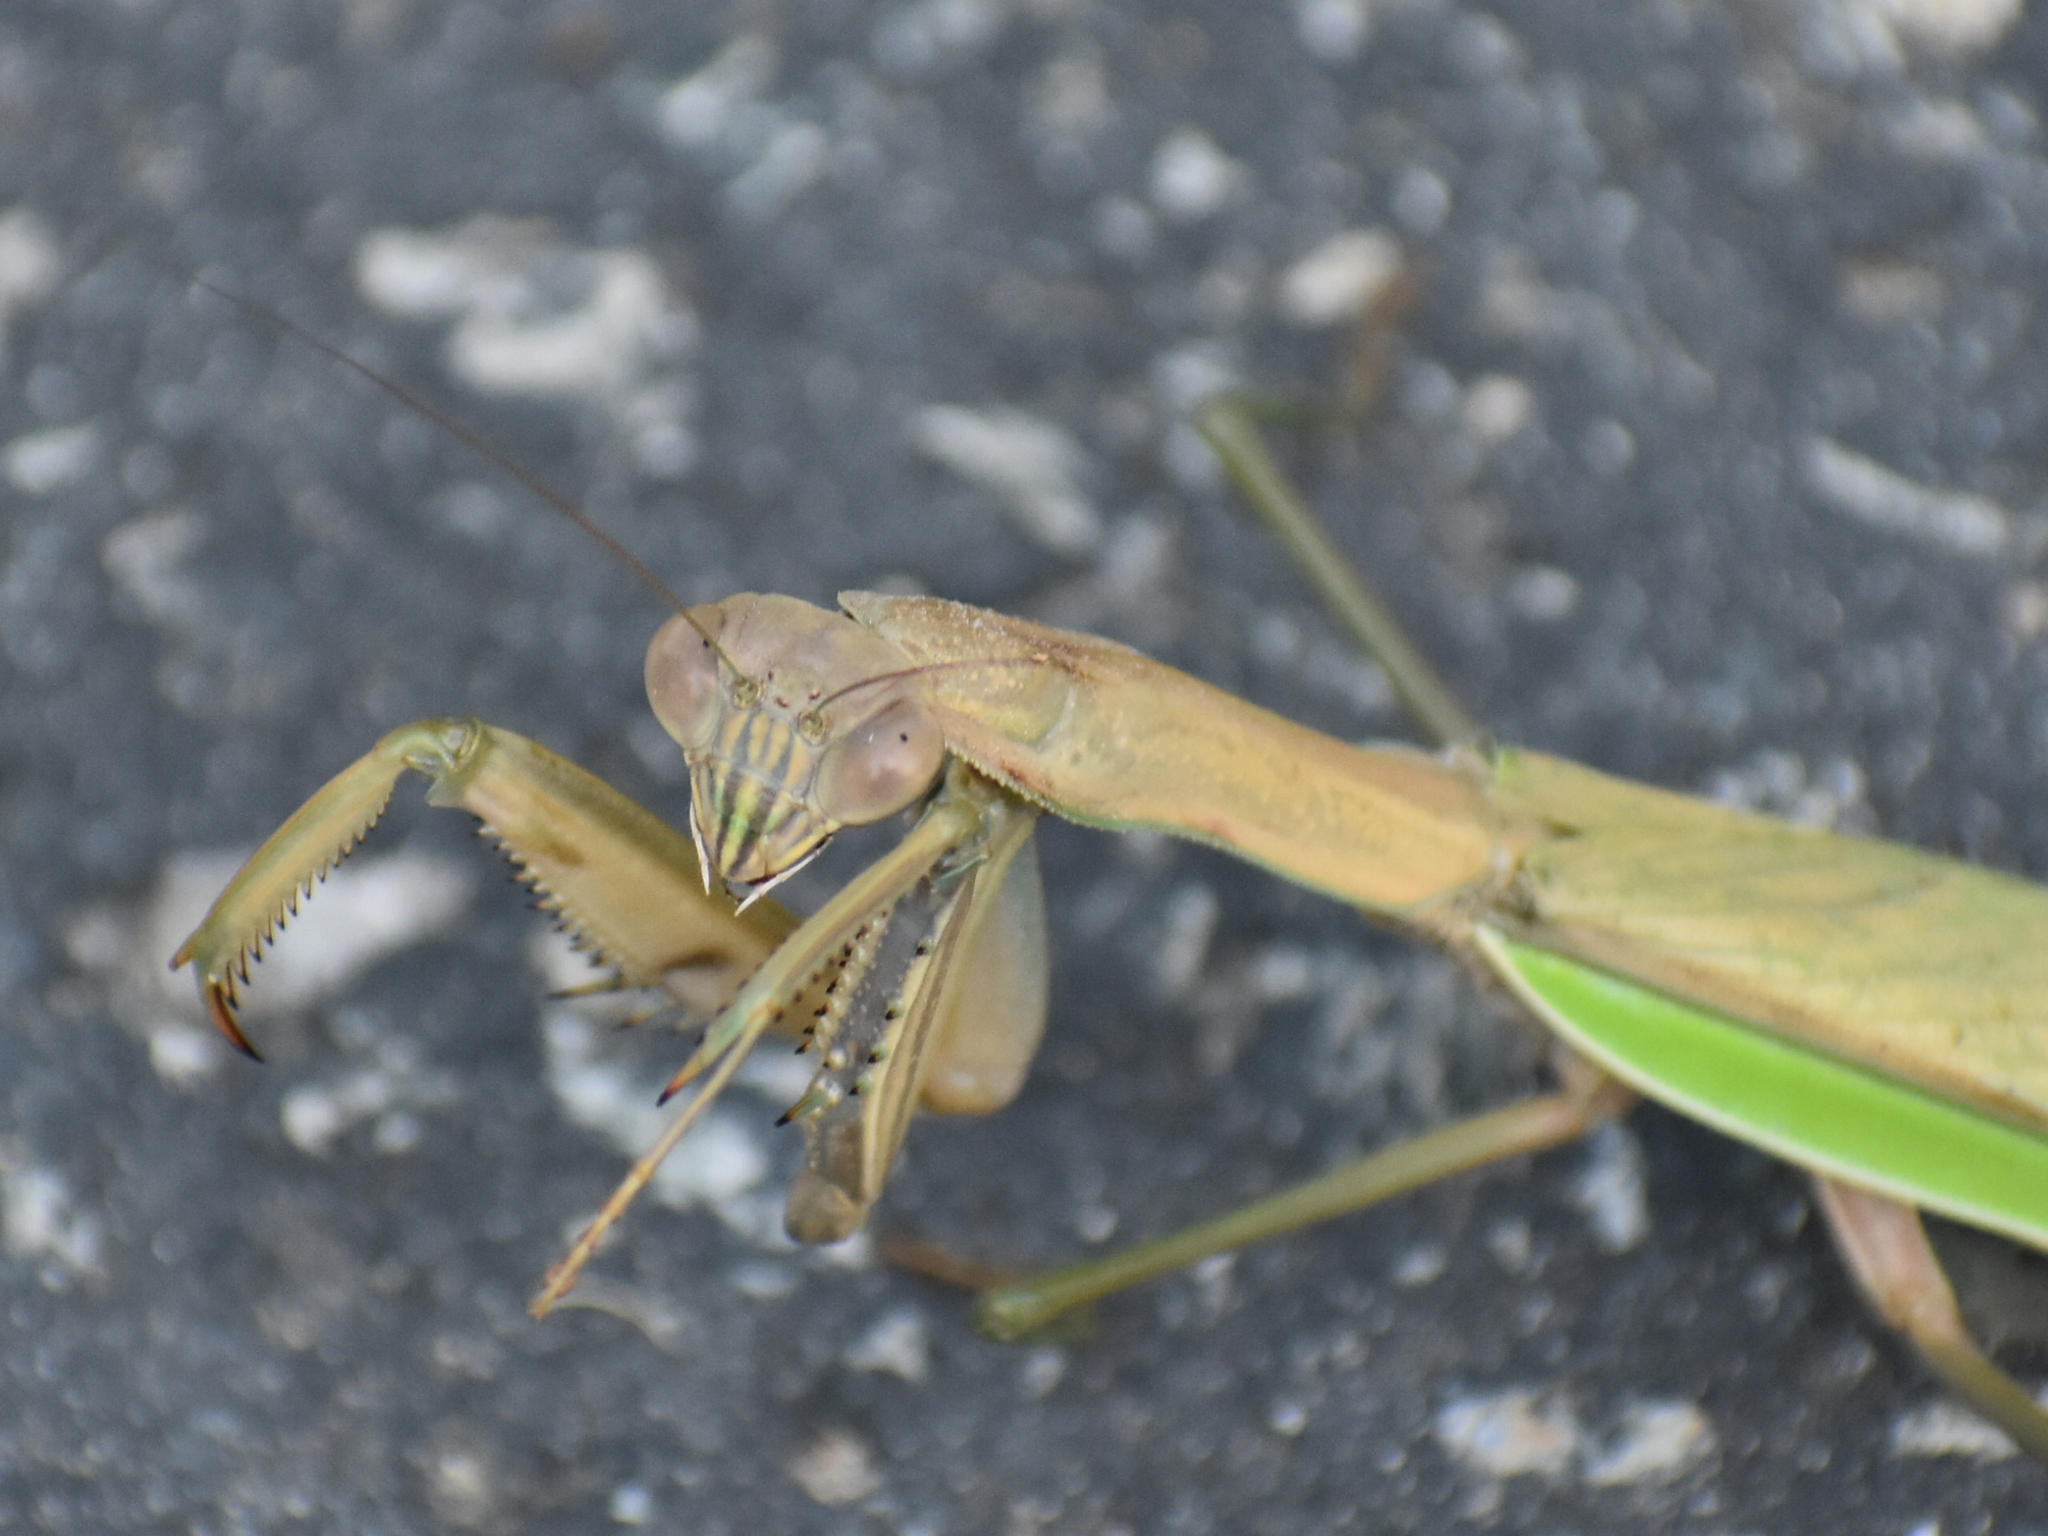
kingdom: Animalia
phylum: Arthropoda
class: Insecta
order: Mantodea
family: Mantidae
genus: Tenodera
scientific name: Tenodera sinensis
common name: Chinese mantis
